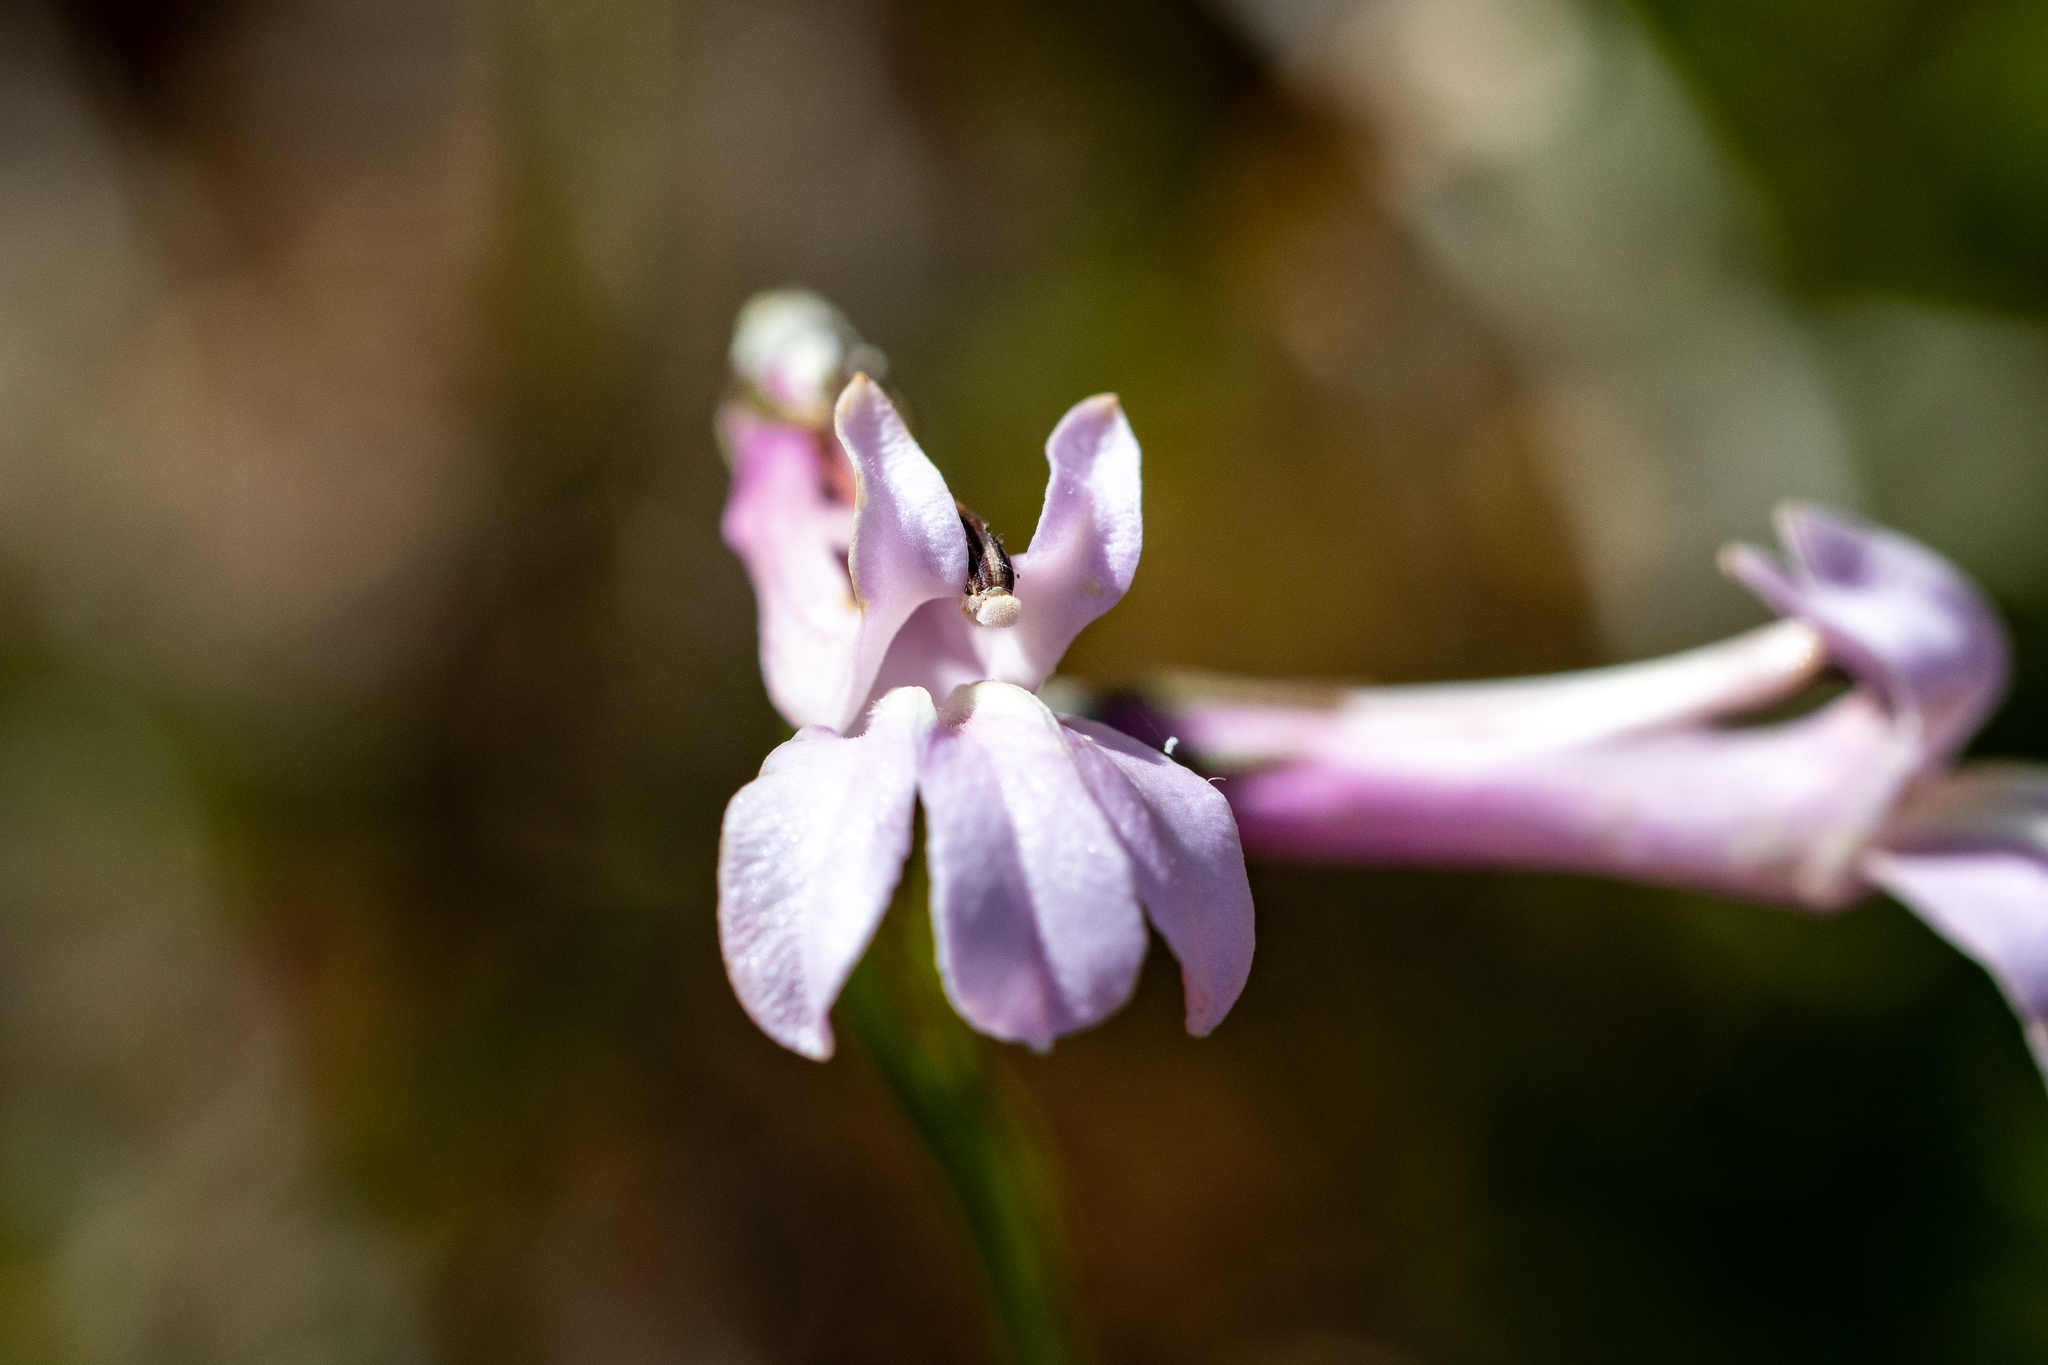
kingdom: Plantae
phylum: Tracheophyta
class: Magnoliopsida
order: Asterales
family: Campanulaceae
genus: Lobelia
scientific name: Lobelia coronopifolia
